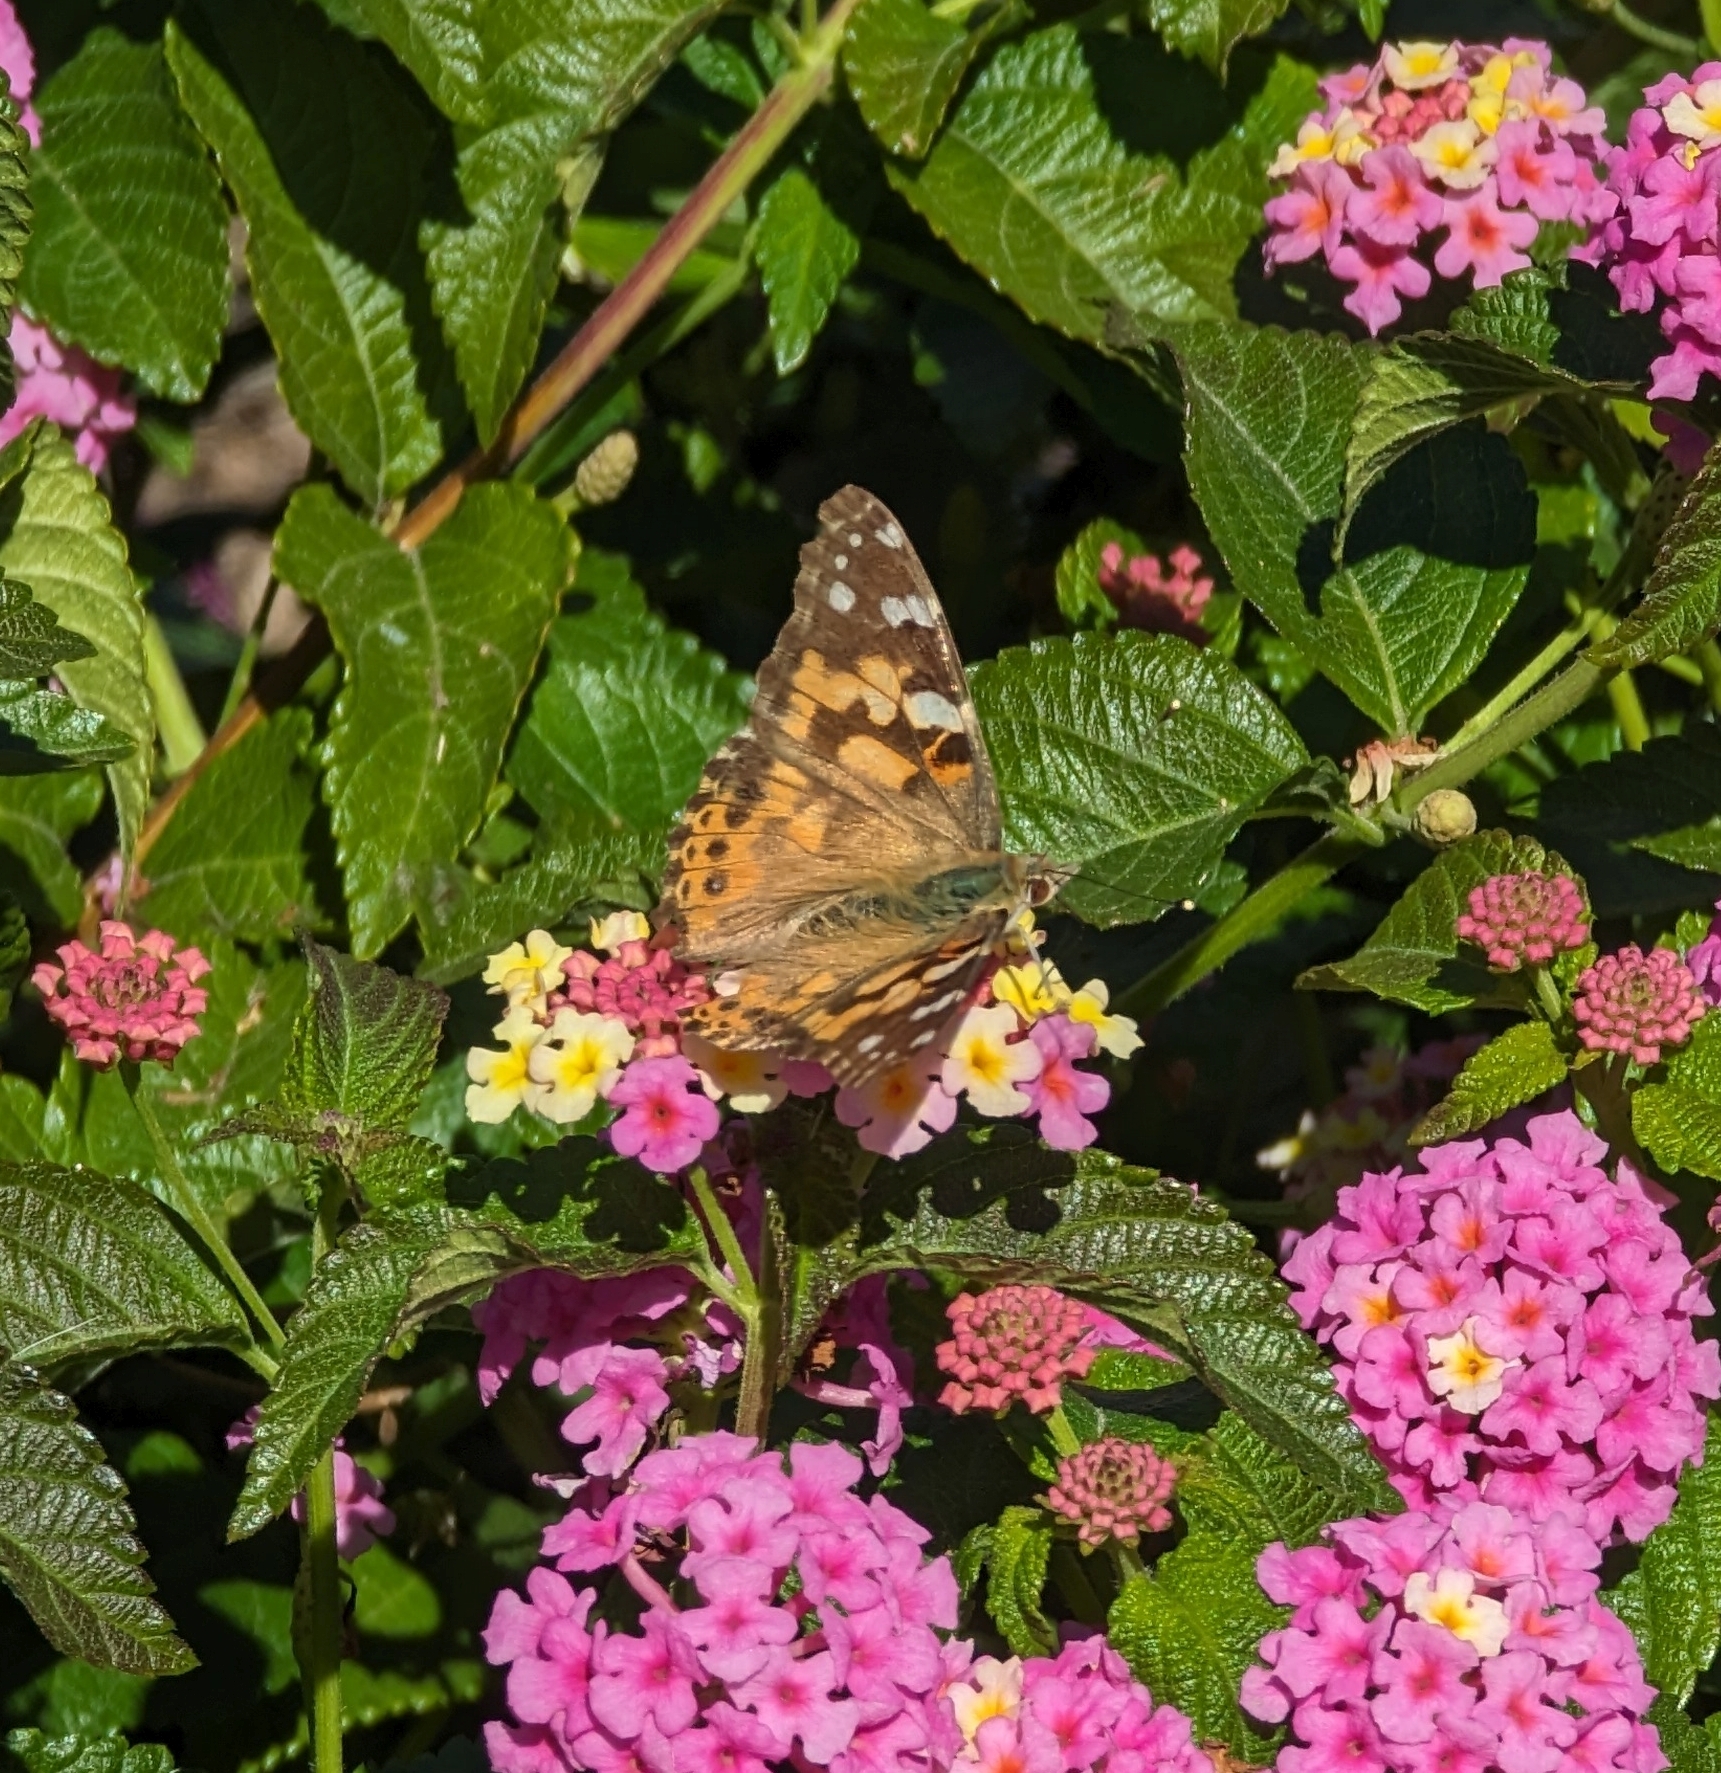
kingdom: Animalia
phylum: Arthropoda
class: Insecta
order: Lepidoptera
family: Nymphalidae
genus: Vanessa
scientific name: Vanessa cardui
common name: Painted lady
